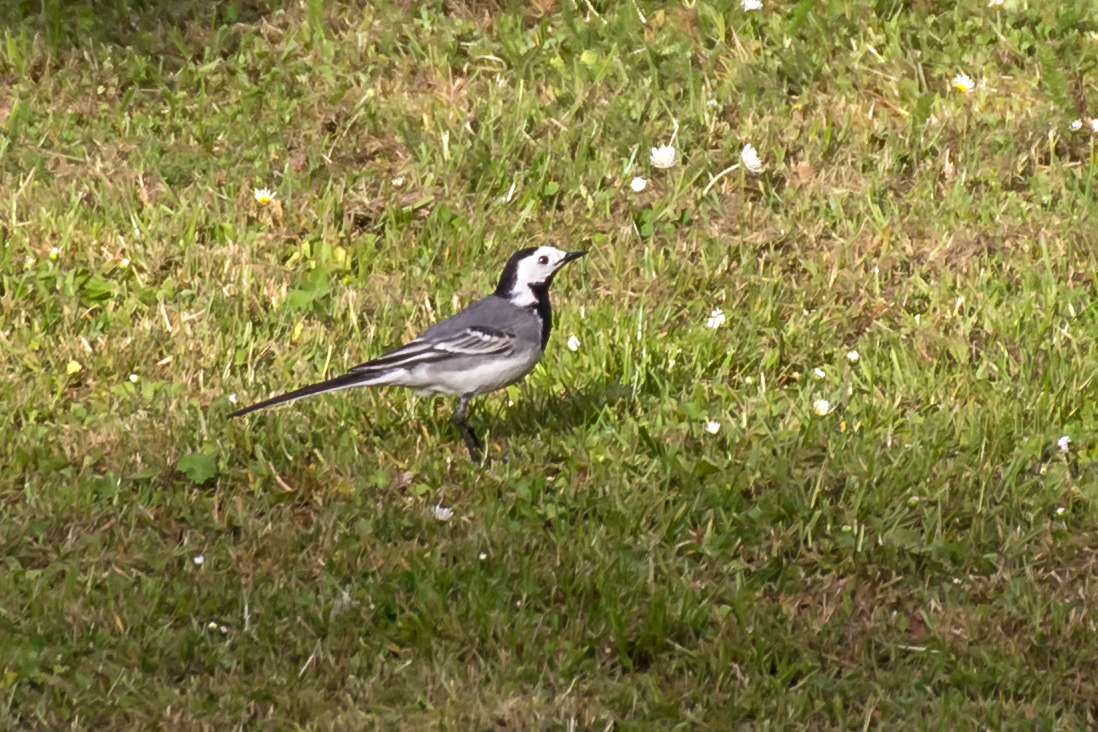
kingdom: Animalia
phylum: Chordata
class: Aves
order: Passeriformes
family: Motacillidae
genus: Motacilla
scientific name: Motacilla alba
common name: White wagtail
